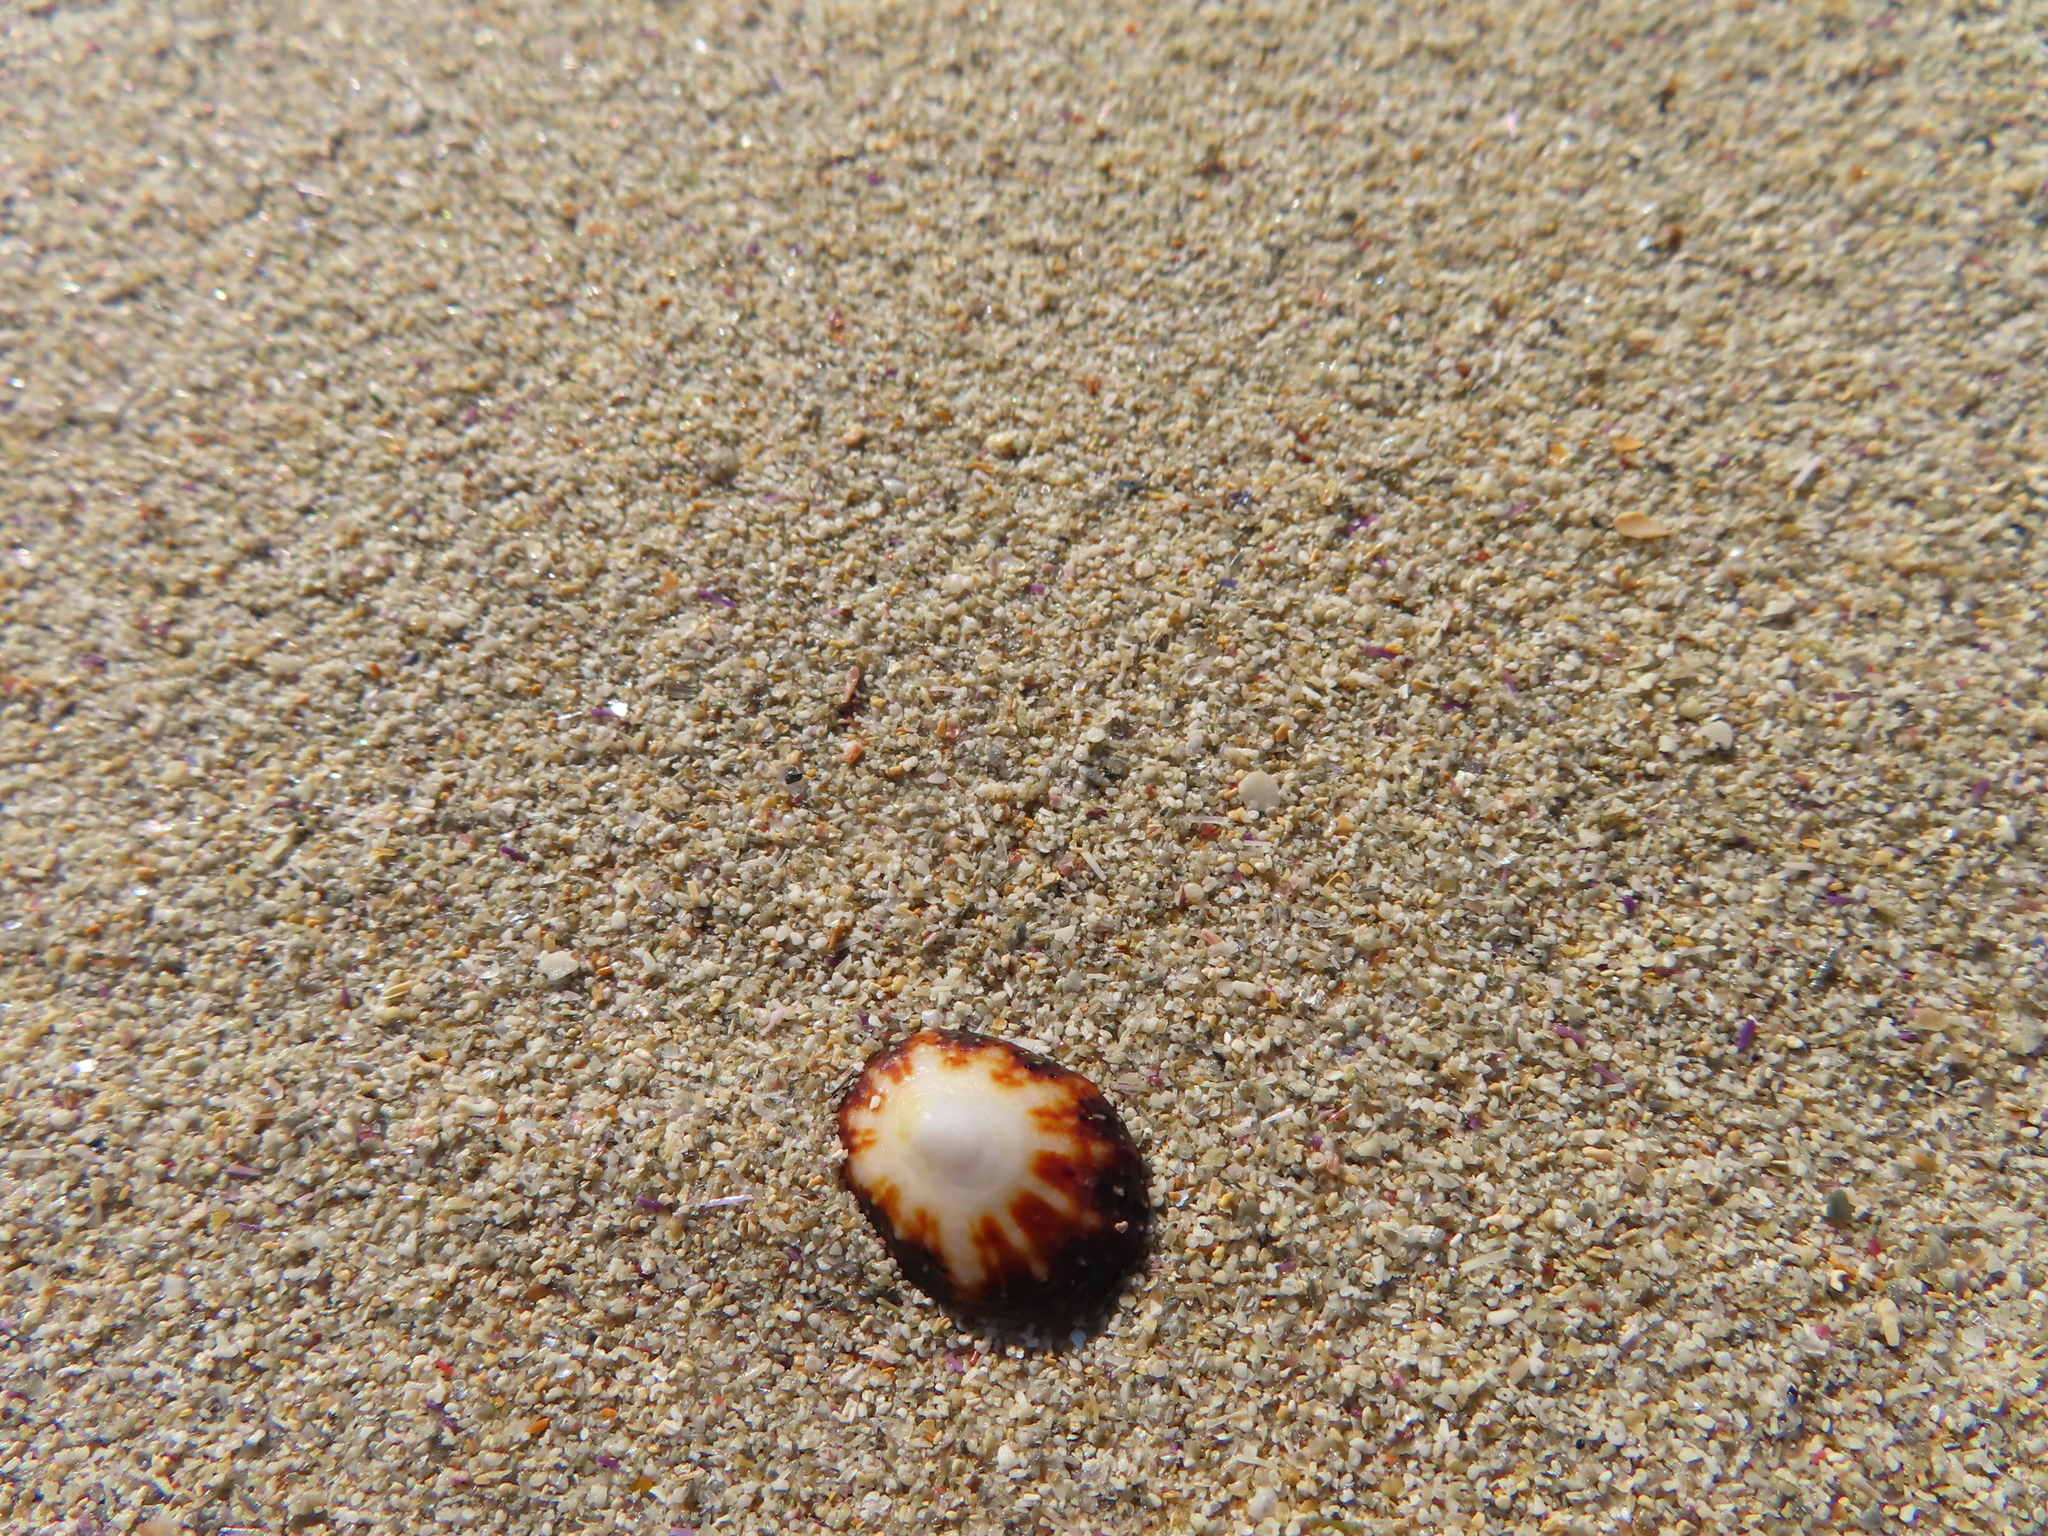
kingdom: Animalia
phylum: Mollusca
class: Gastropoda
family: Patellidae
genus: Helcion
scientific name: Helcion dunkeri
